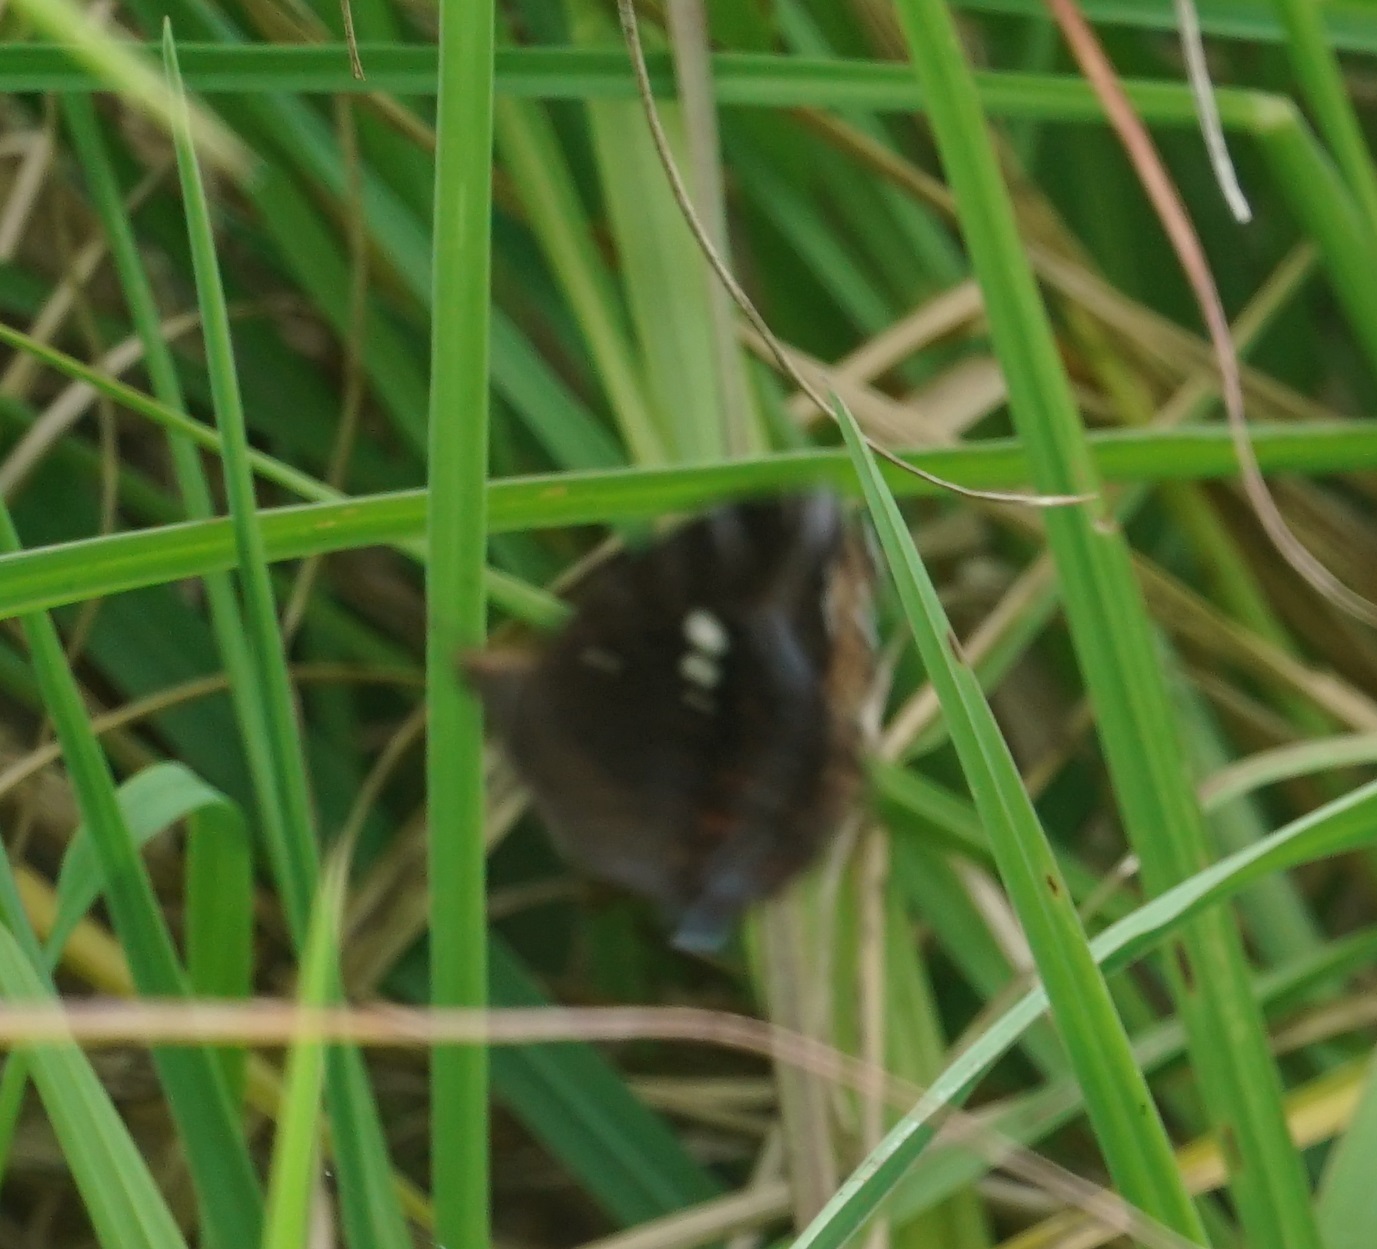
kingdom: Animalia
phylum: Arthropoda
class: Insecta
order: Lepidoptera
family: Nymphalidae
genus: Junonia
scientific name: Junonia hedonia
